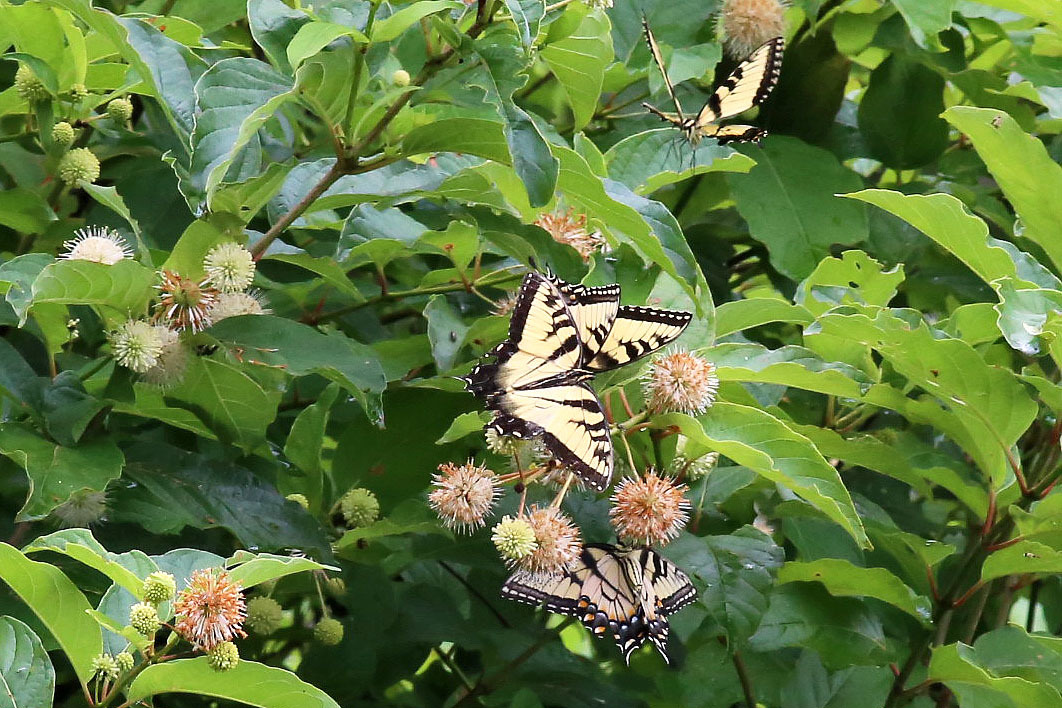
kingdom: Animalia
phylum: Arthropoda
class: Insecta
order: Lepidoptera
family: Papilionidae
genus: Papilio
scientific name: Papilio glaucus
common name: Tiger swallowtail
